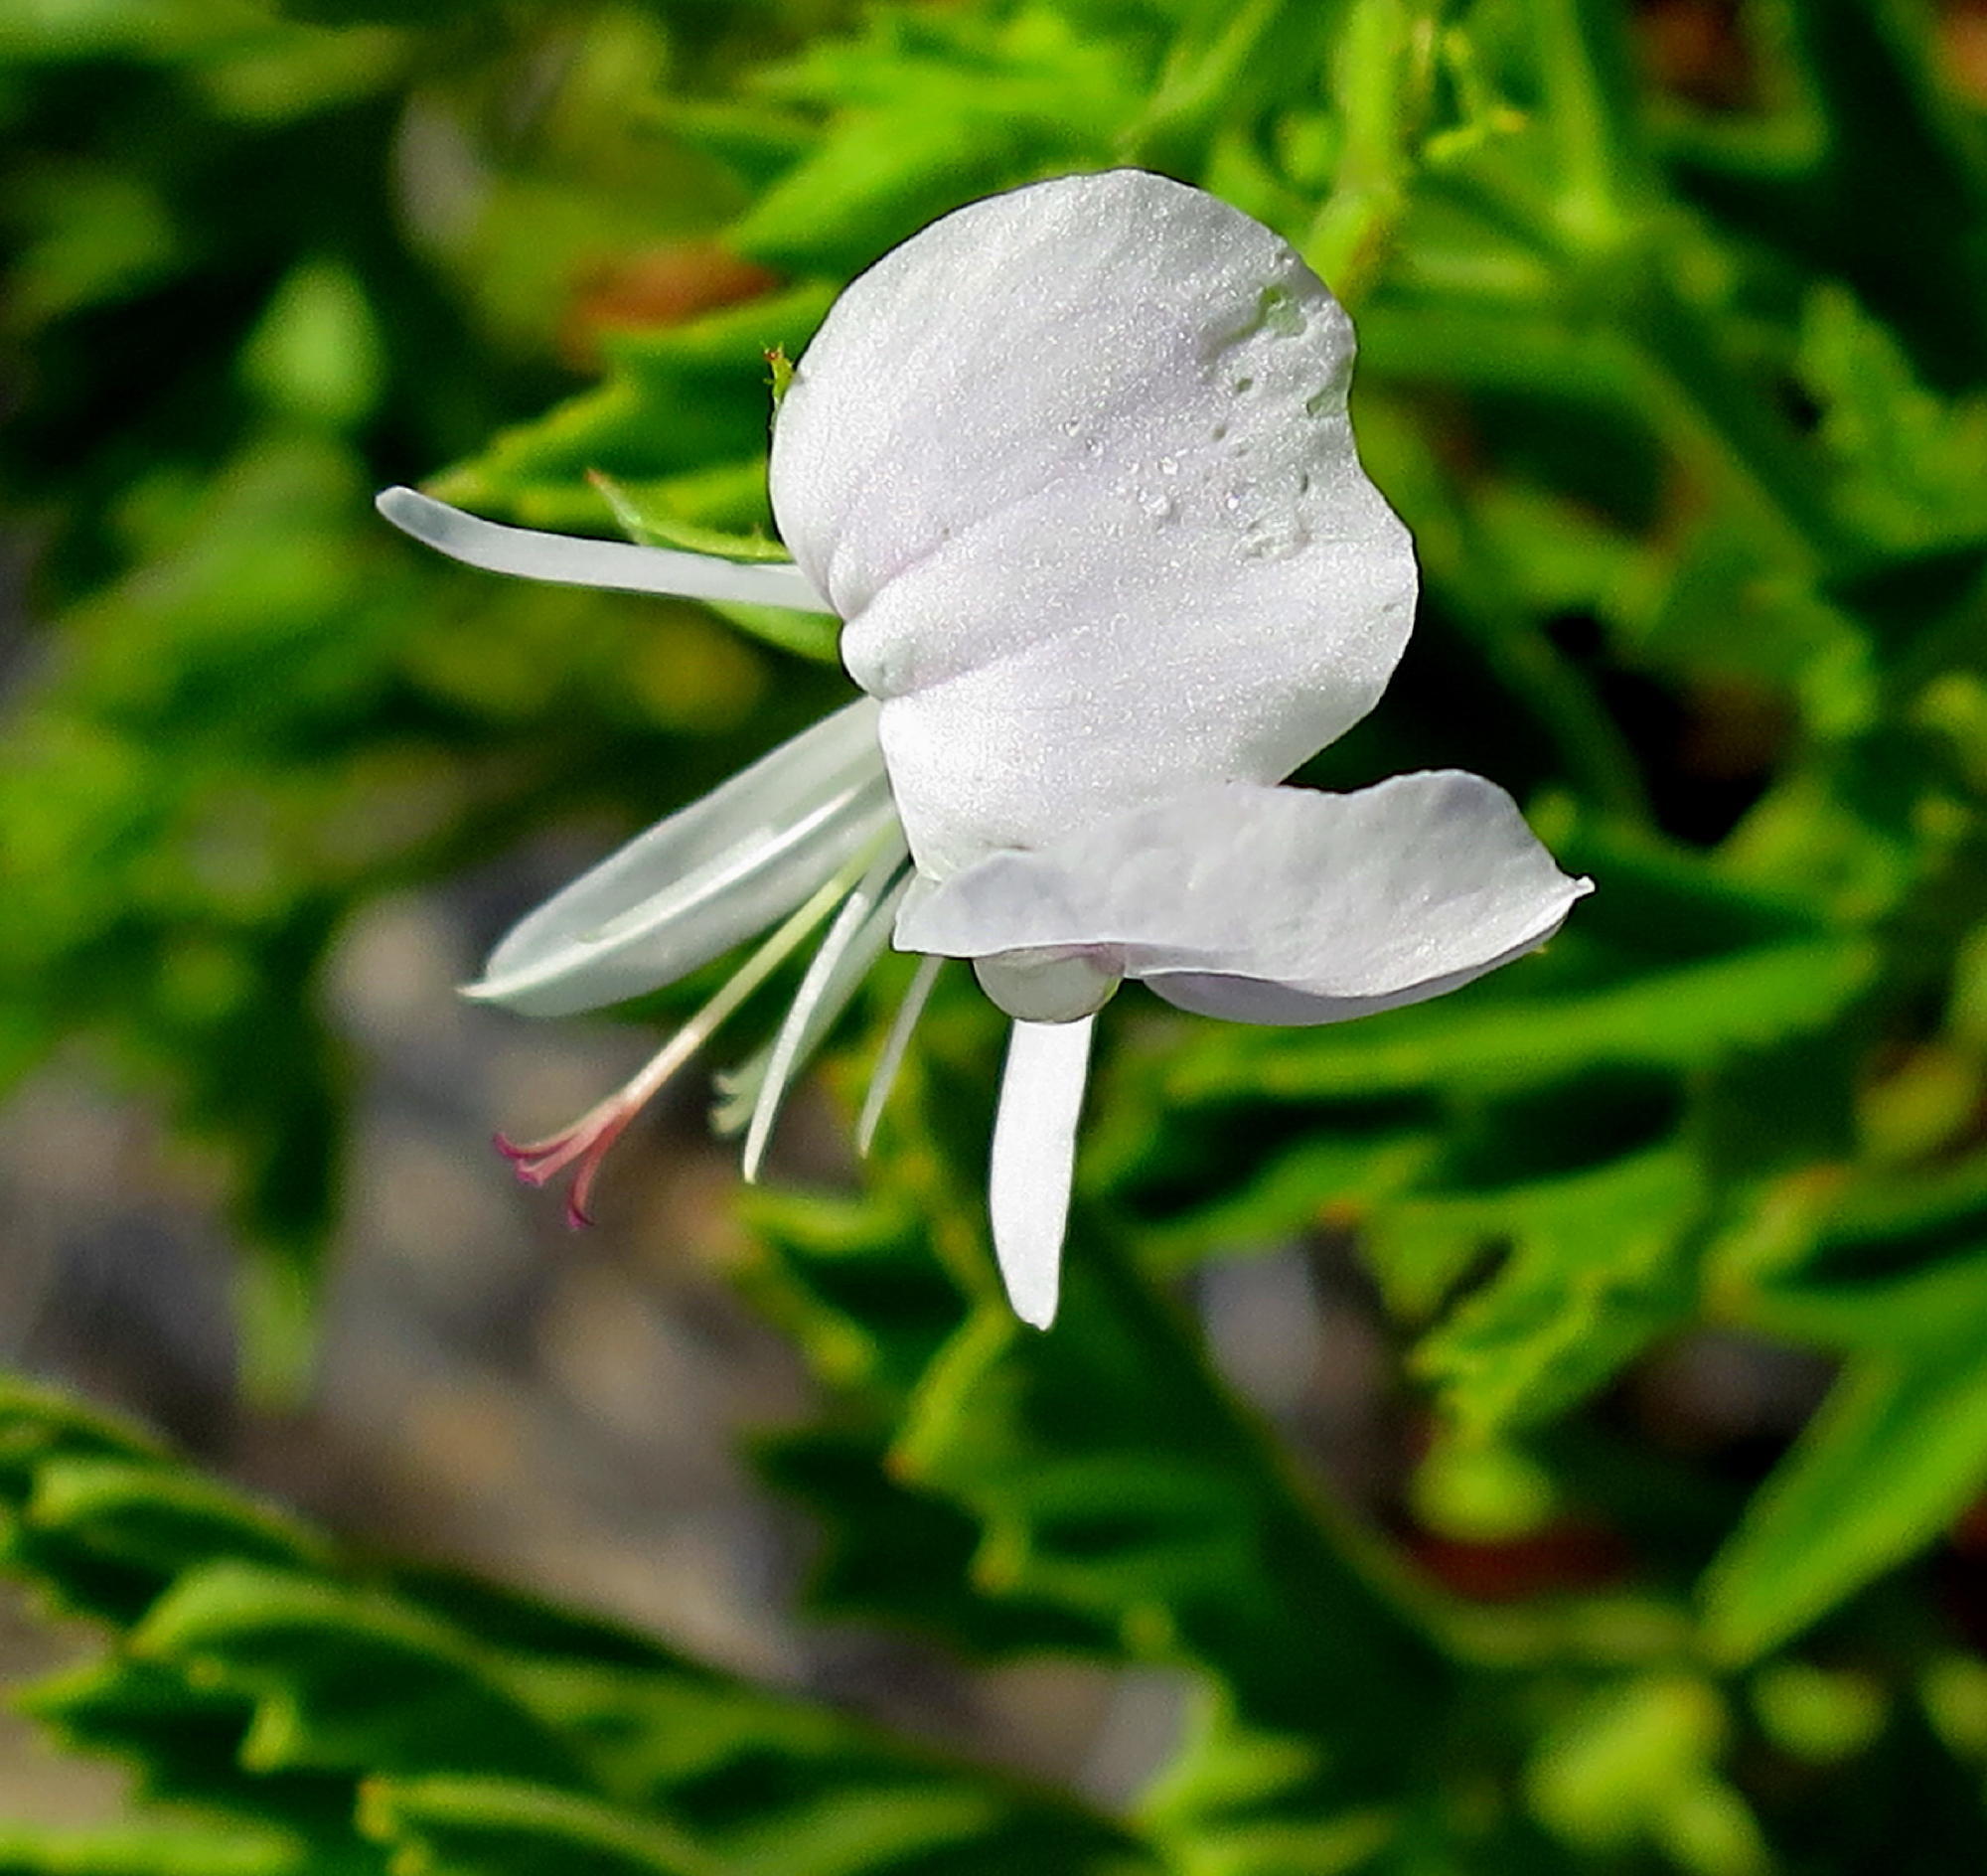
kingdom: Plantae
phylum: Tracheophyta
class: Magnoliopsida
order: Geraniales
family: Geraniaceae
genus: Pelargonium
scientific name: Pelargonium ribifolium
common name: Currant-leaf pelargonium
